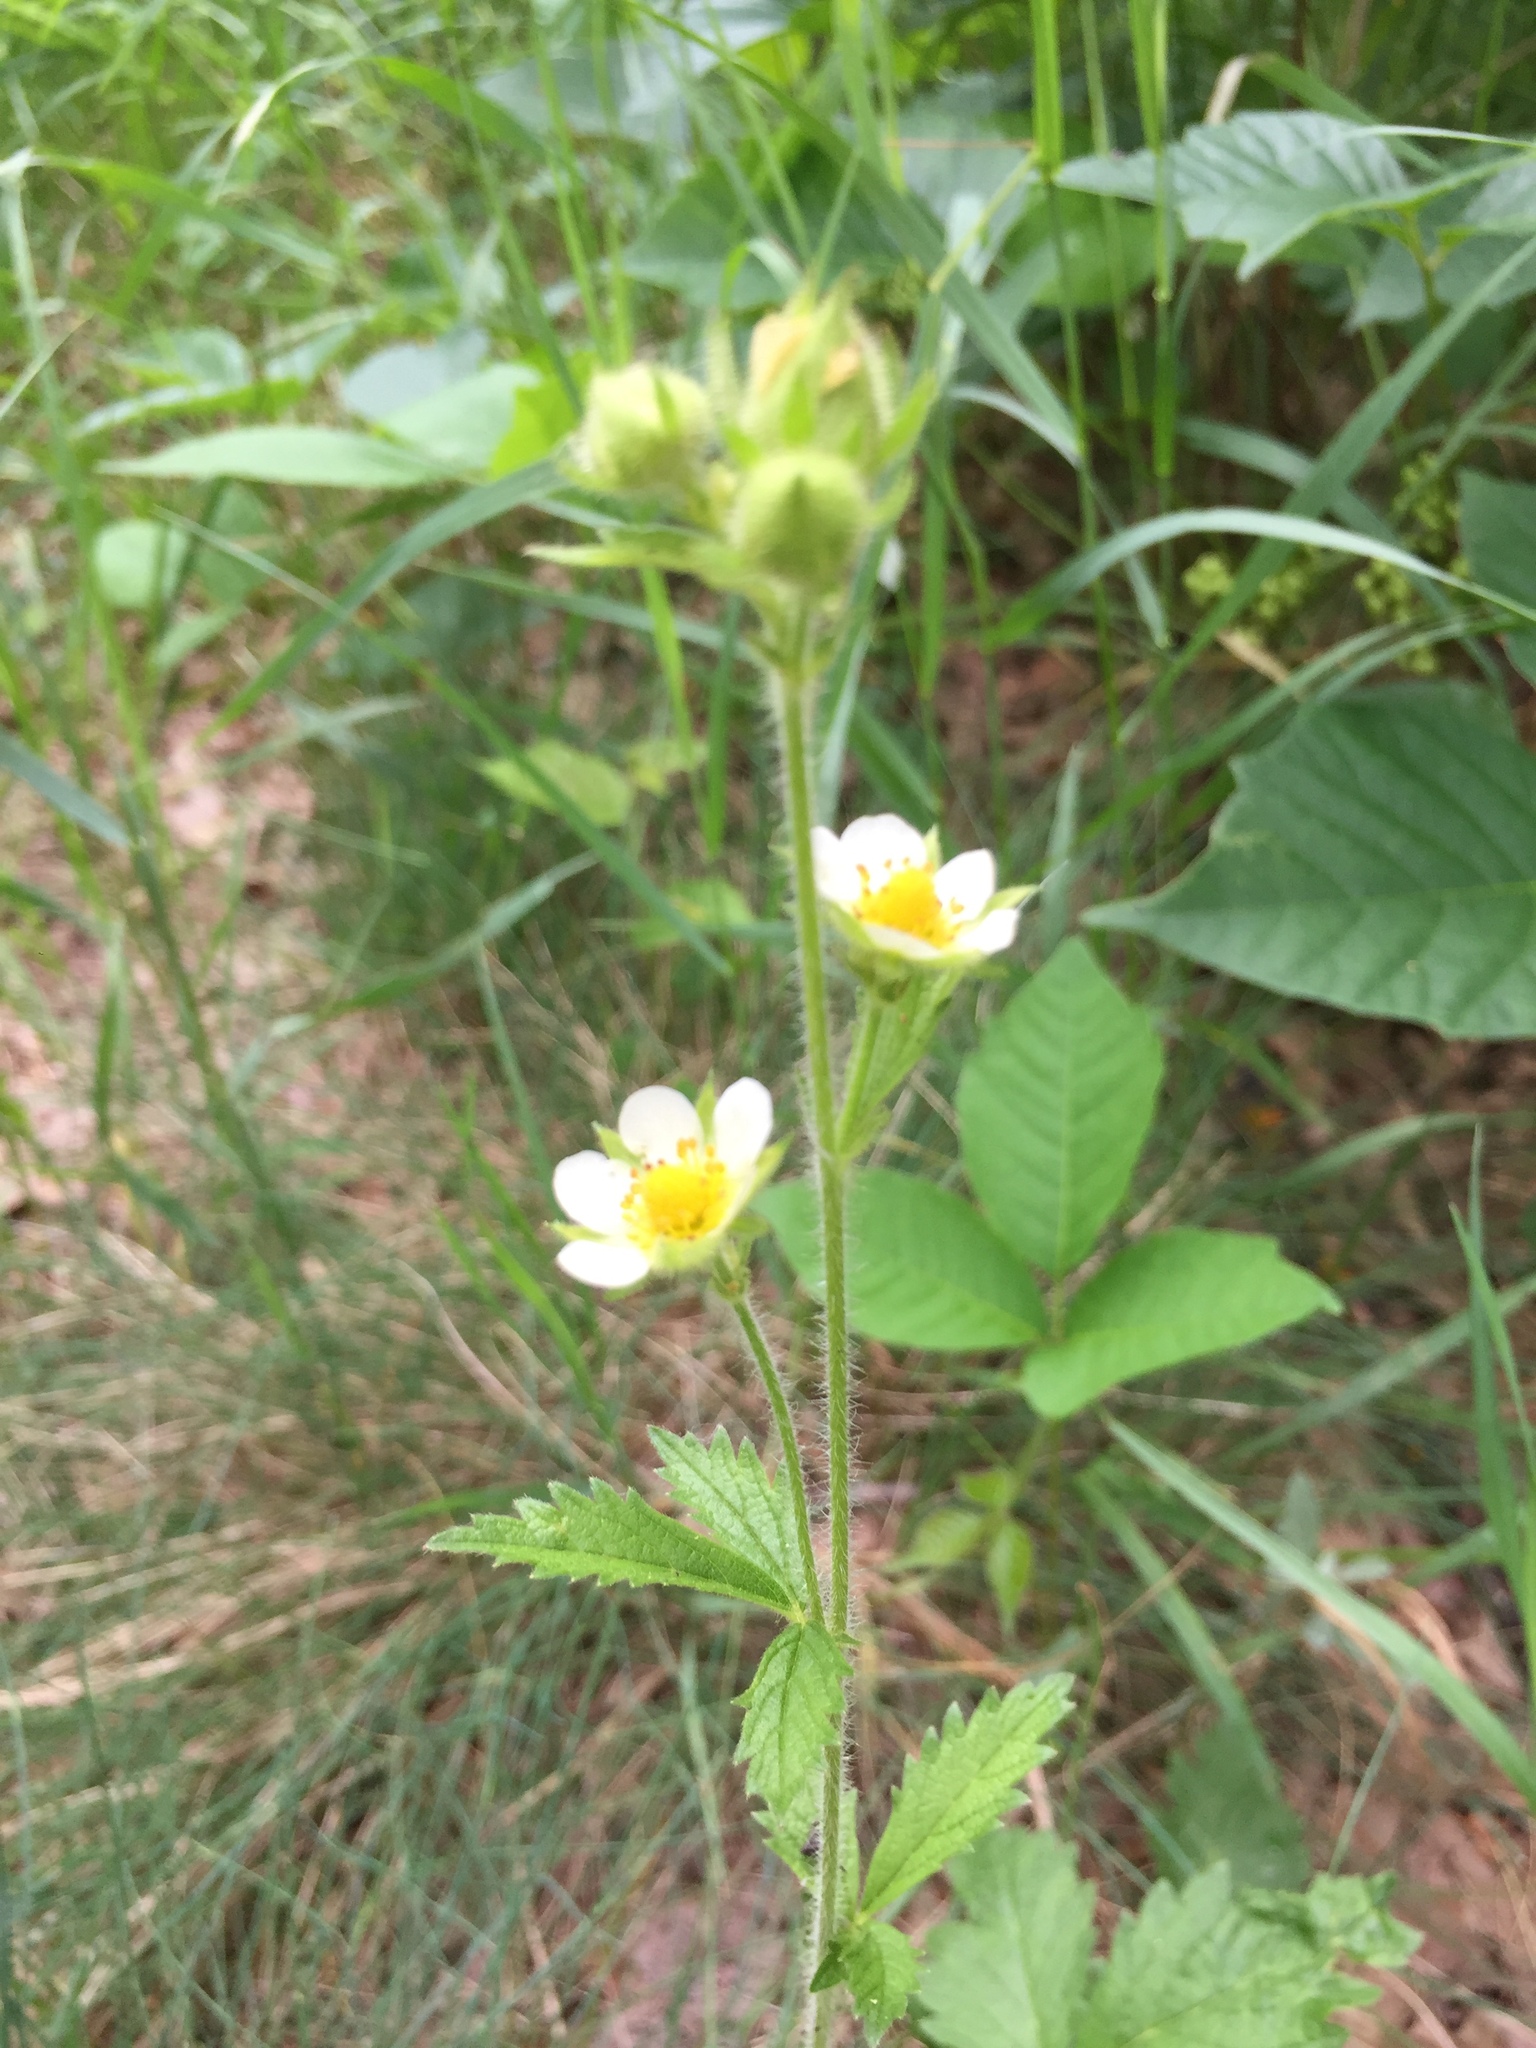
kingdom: Plantae
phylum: Tracheophyta
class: Magnoliopsida
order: Rosales
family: Rosaceae
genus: Drymocallis
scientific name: Drymocallis arguta
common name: Tall cinquefoil
